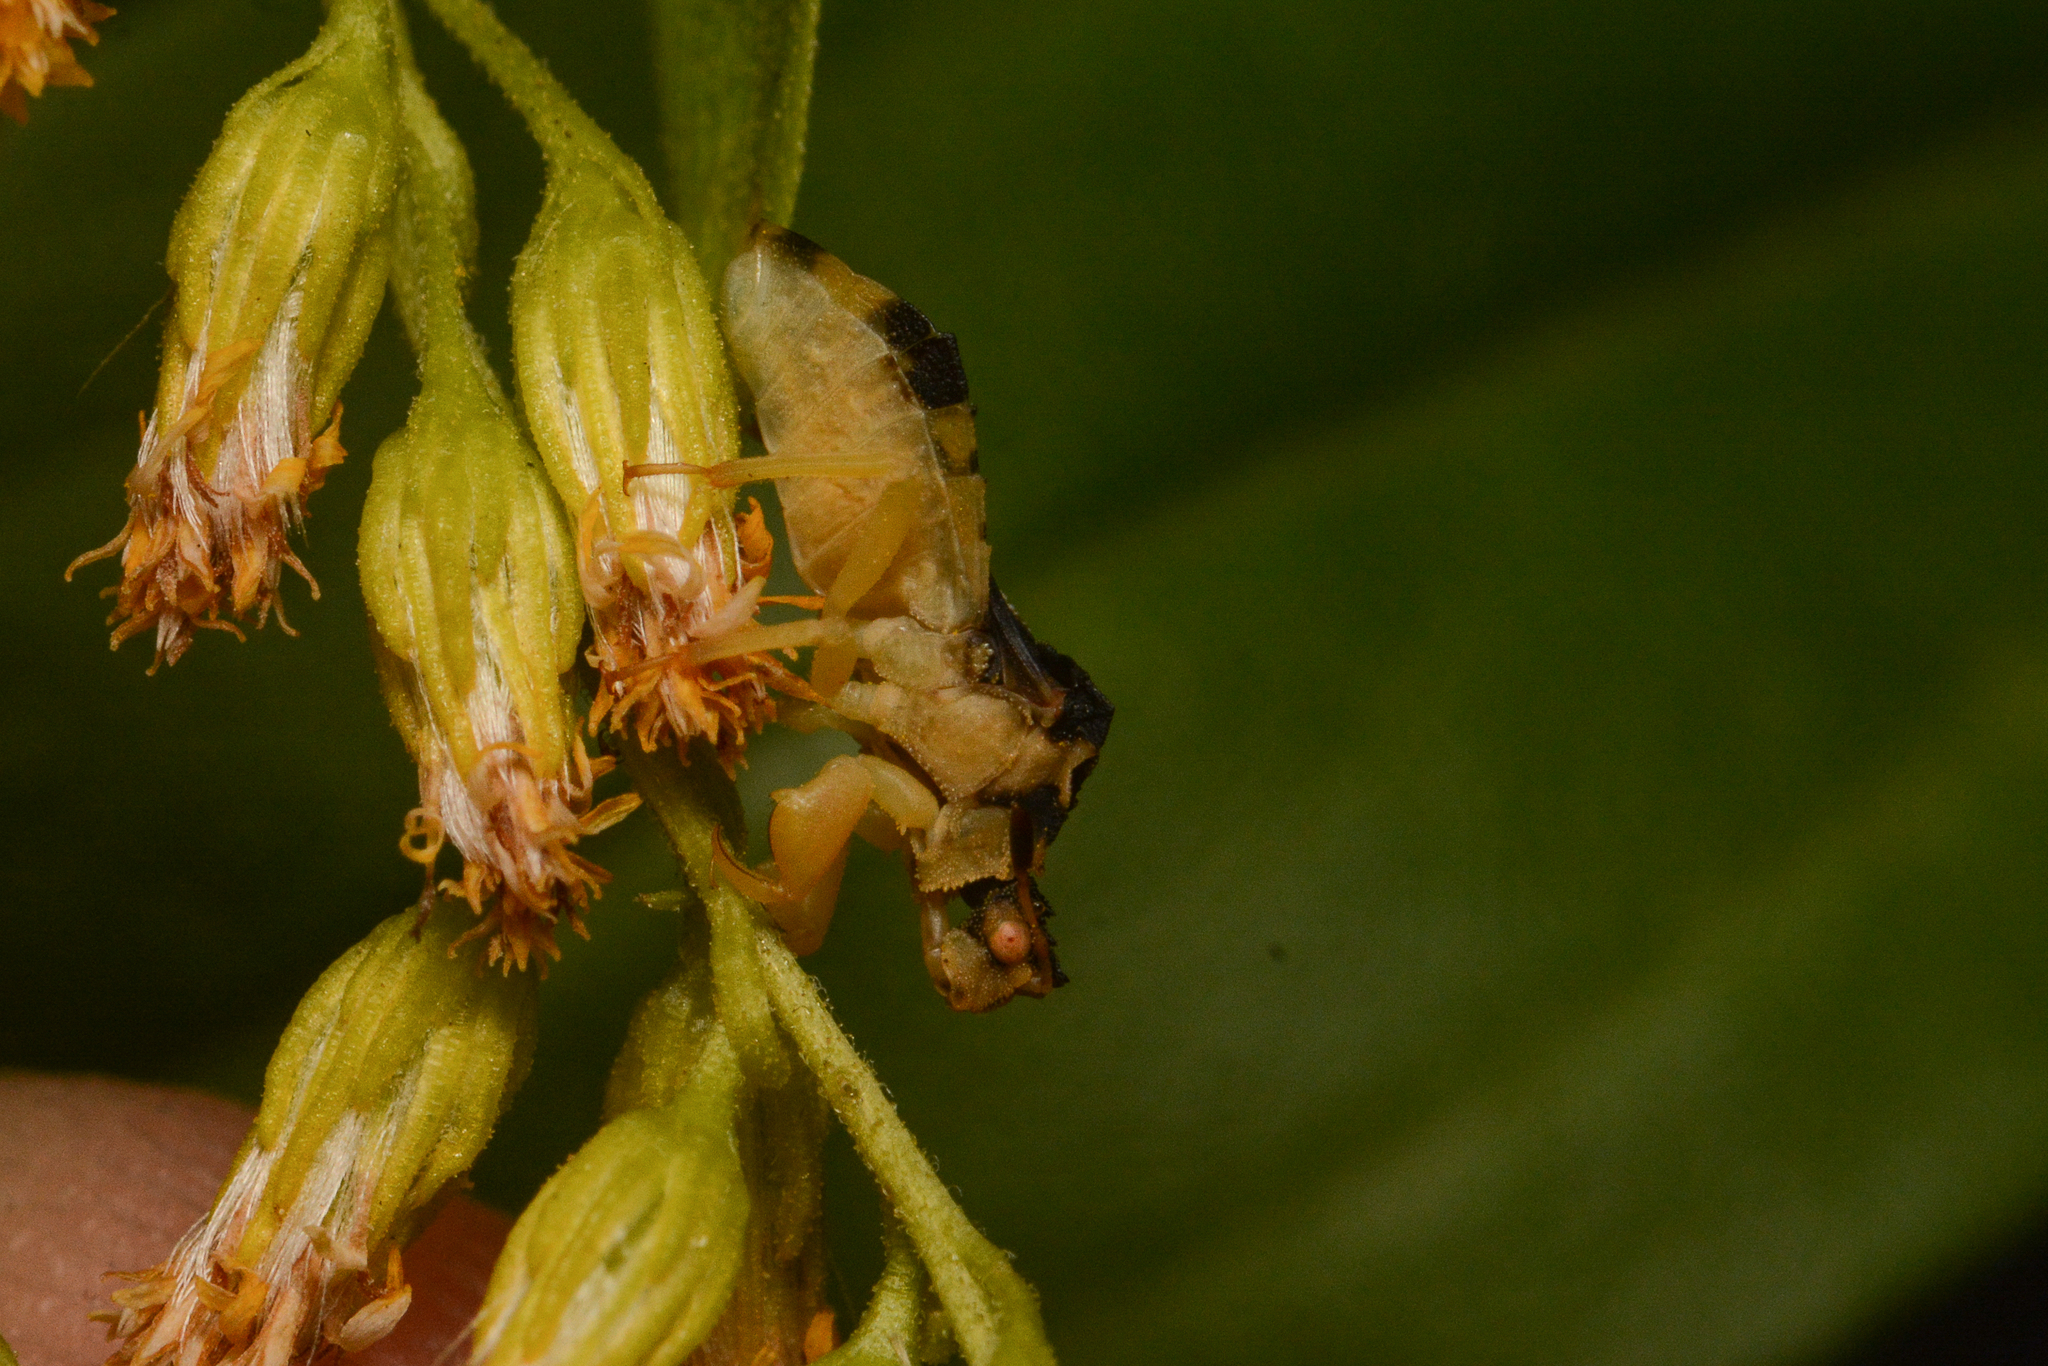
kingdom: Animalia
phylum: Arthropoda
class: Insecta
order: Hemiptera
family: Reduviidae
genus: Phymata
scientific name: Phymata americana
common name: Jagged ambush bug
